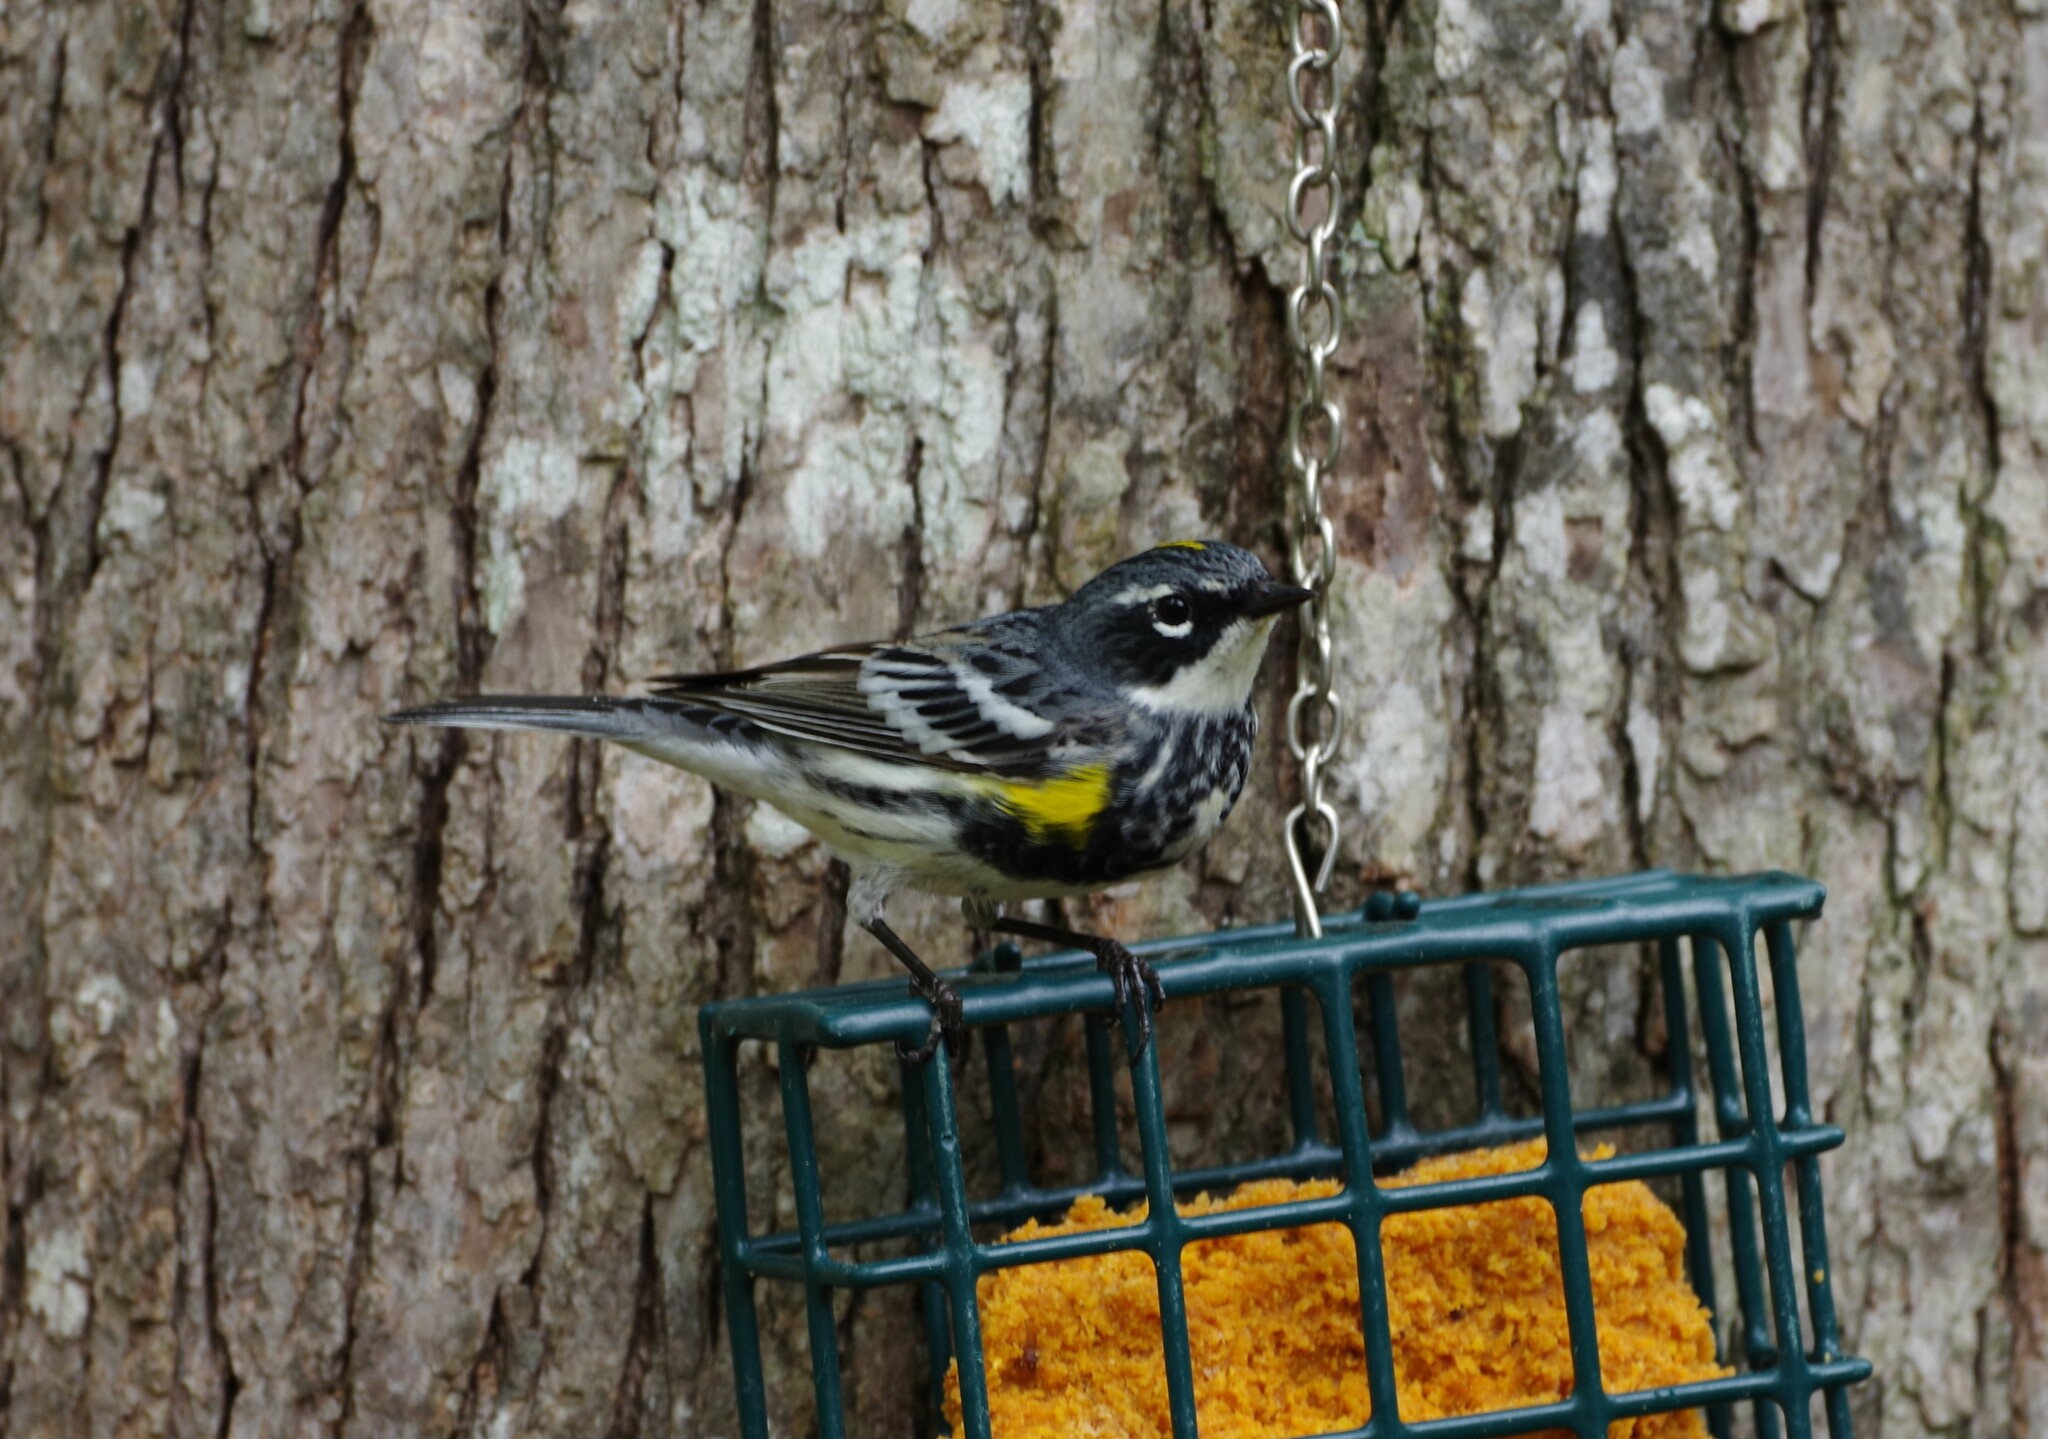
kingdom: Animalia
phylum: Chordata
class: Aves
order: Passeriformes
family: Parulidae
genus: Setophaga
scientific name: Setophaga coronata
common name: Myrtle warbler
